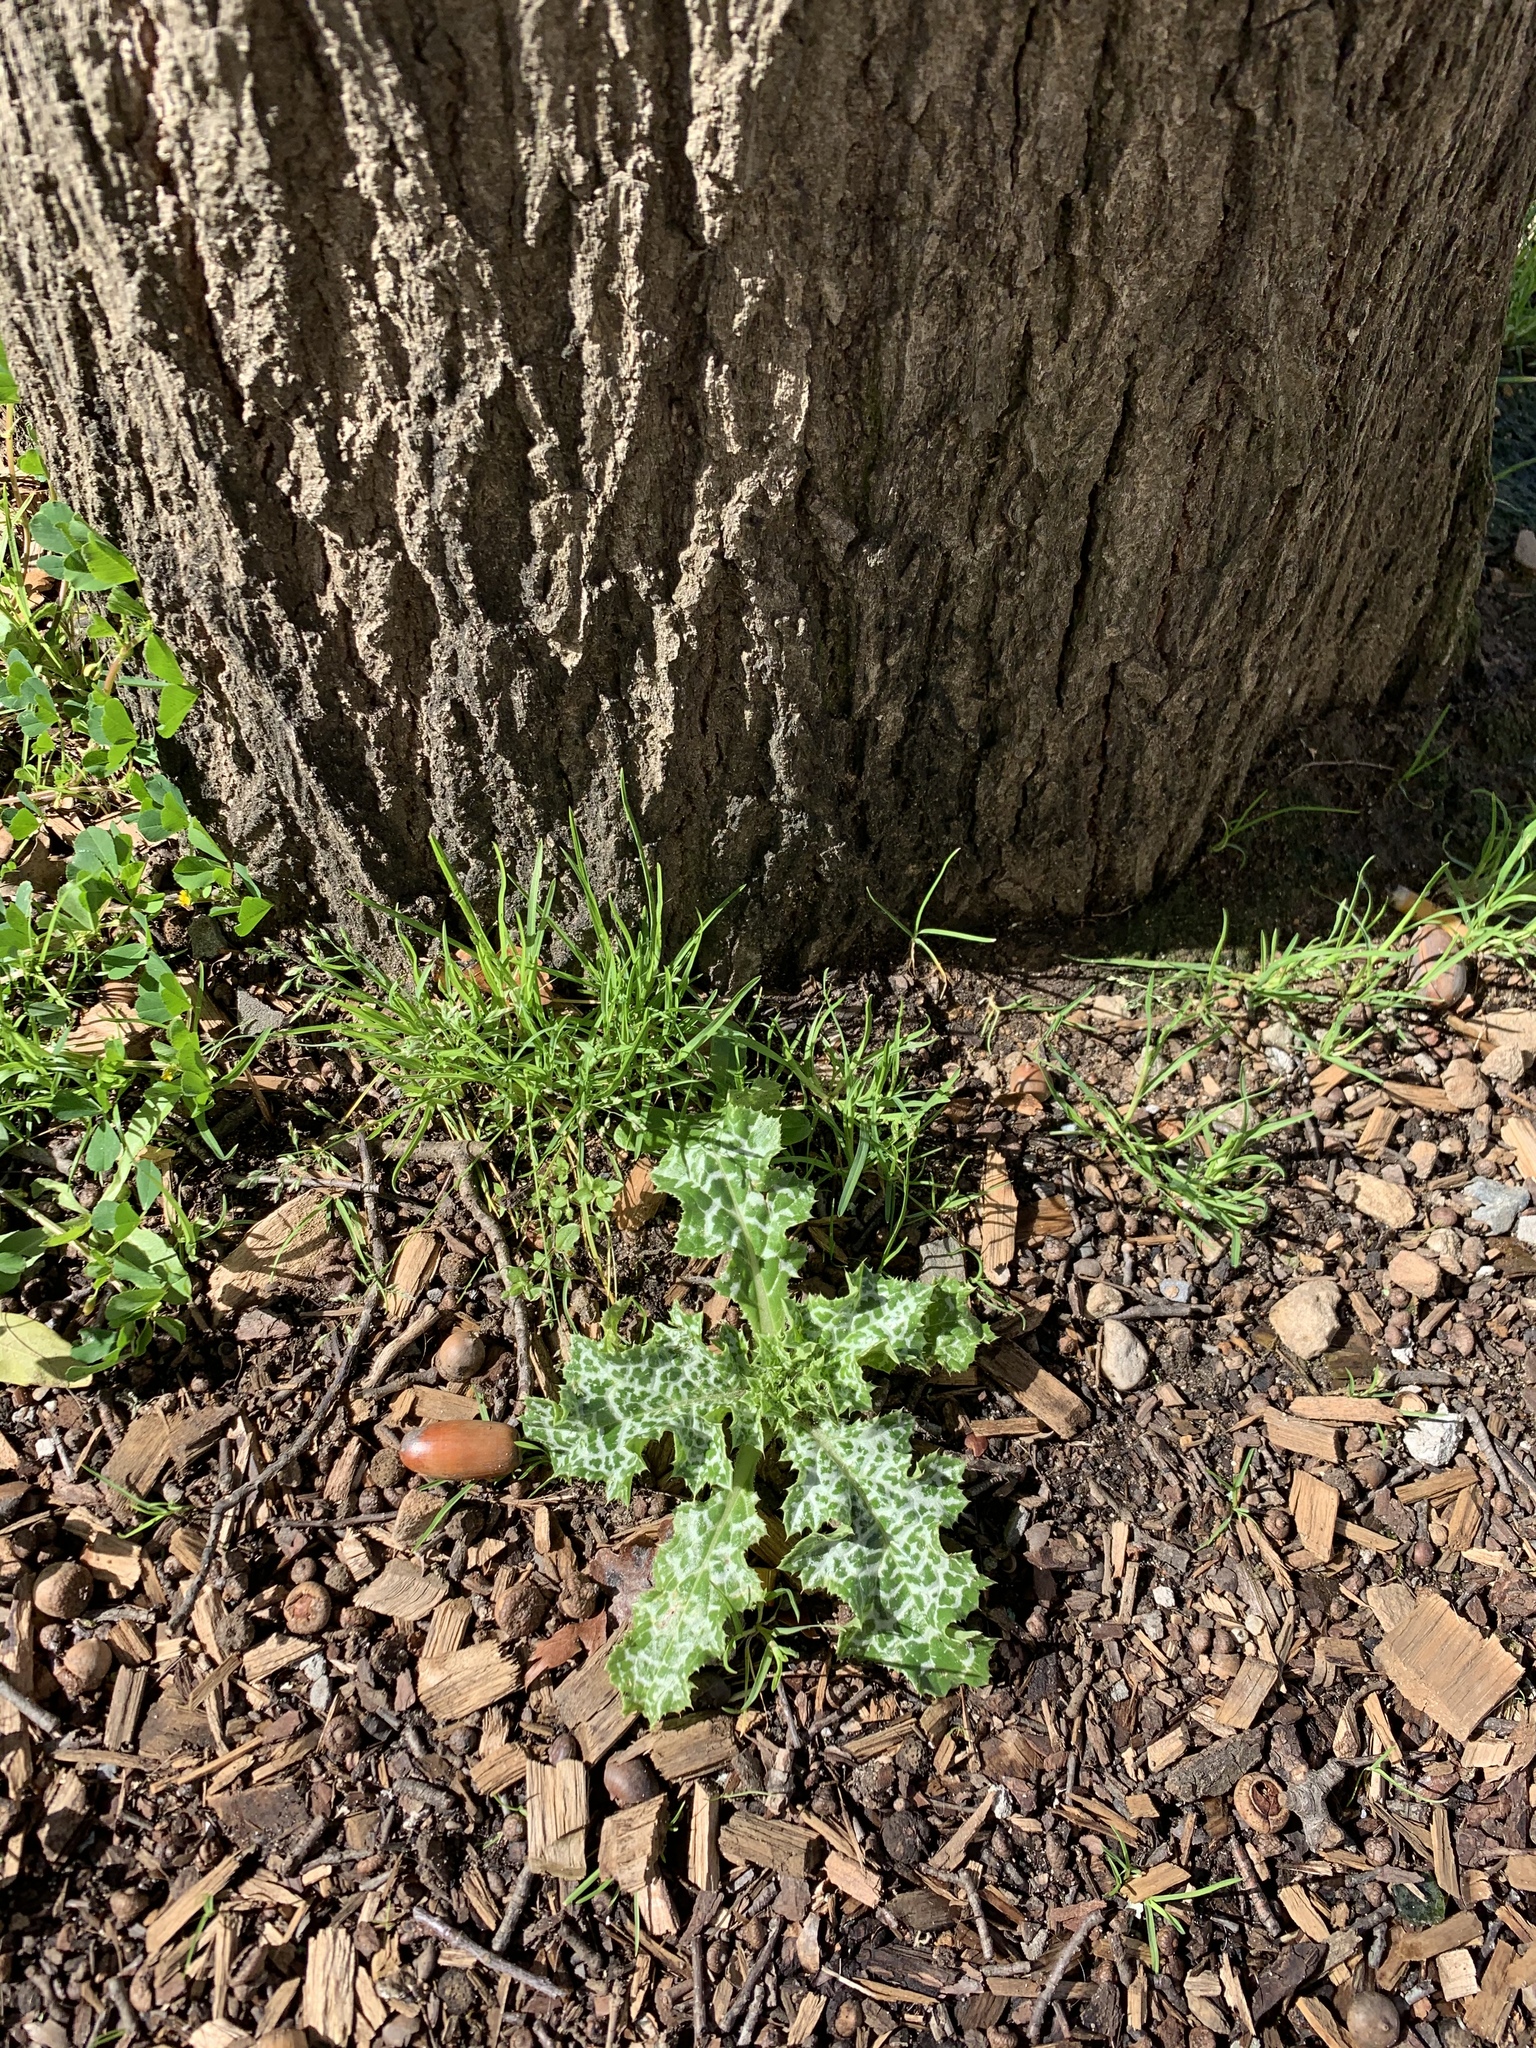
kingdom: Plantae
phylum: Tracheophyta
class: Magnoliopsida
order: Asterales
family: Asteraceae
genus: Silybum
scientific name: Silybum marianum
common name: Milk thistle
